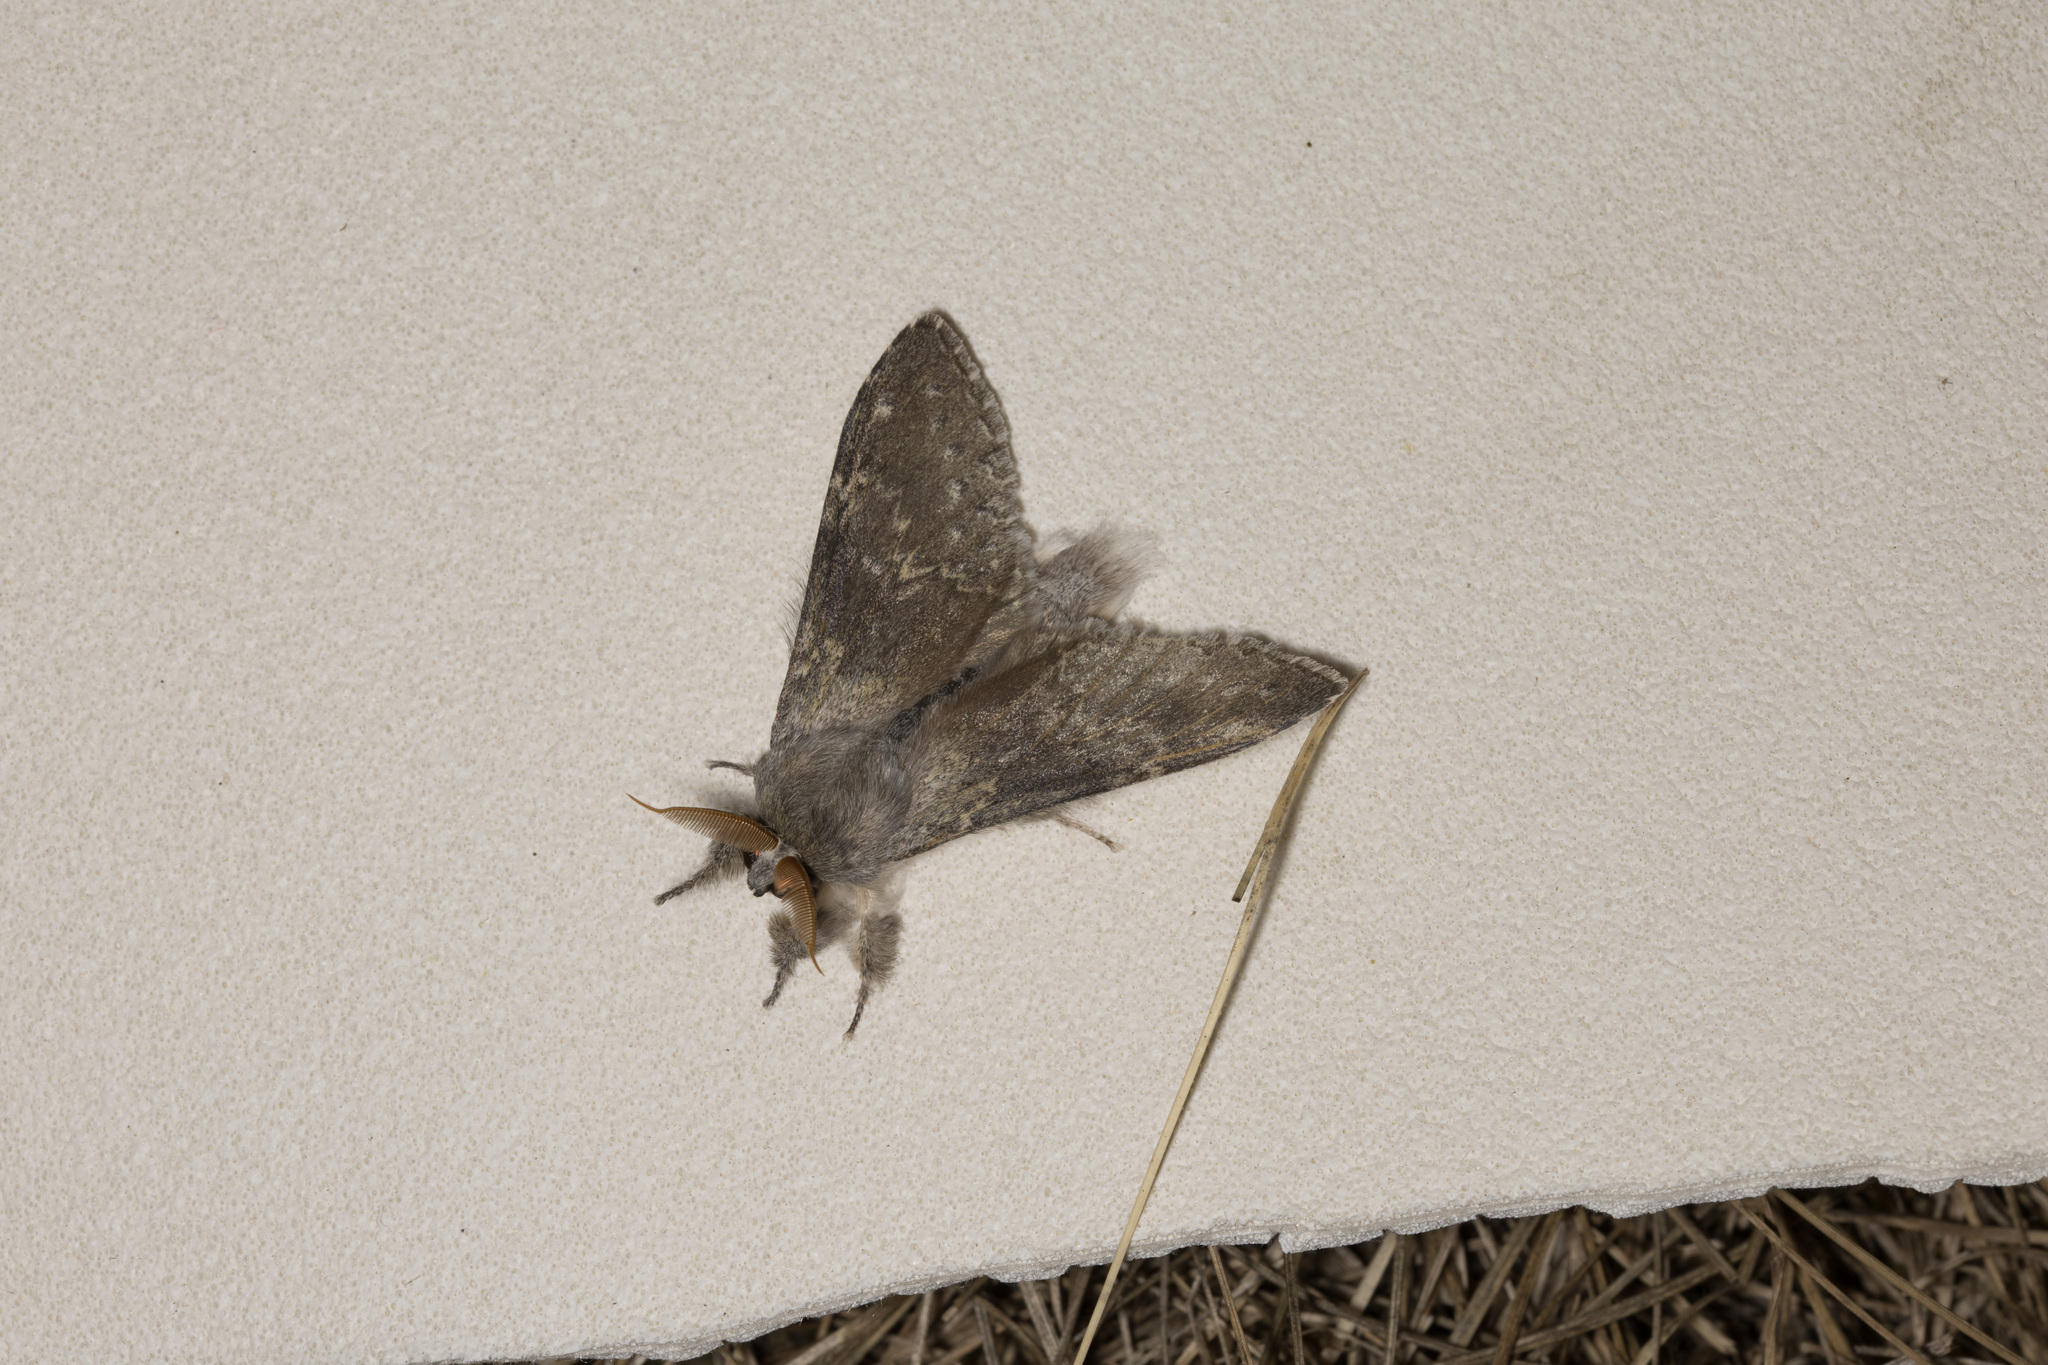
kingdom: Animalia
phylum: Arthropoda
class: Insecta
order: Lepidoptera
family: Notodontidae
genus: Stauropus
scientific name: Stauropus fagi
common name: Lobster moth
